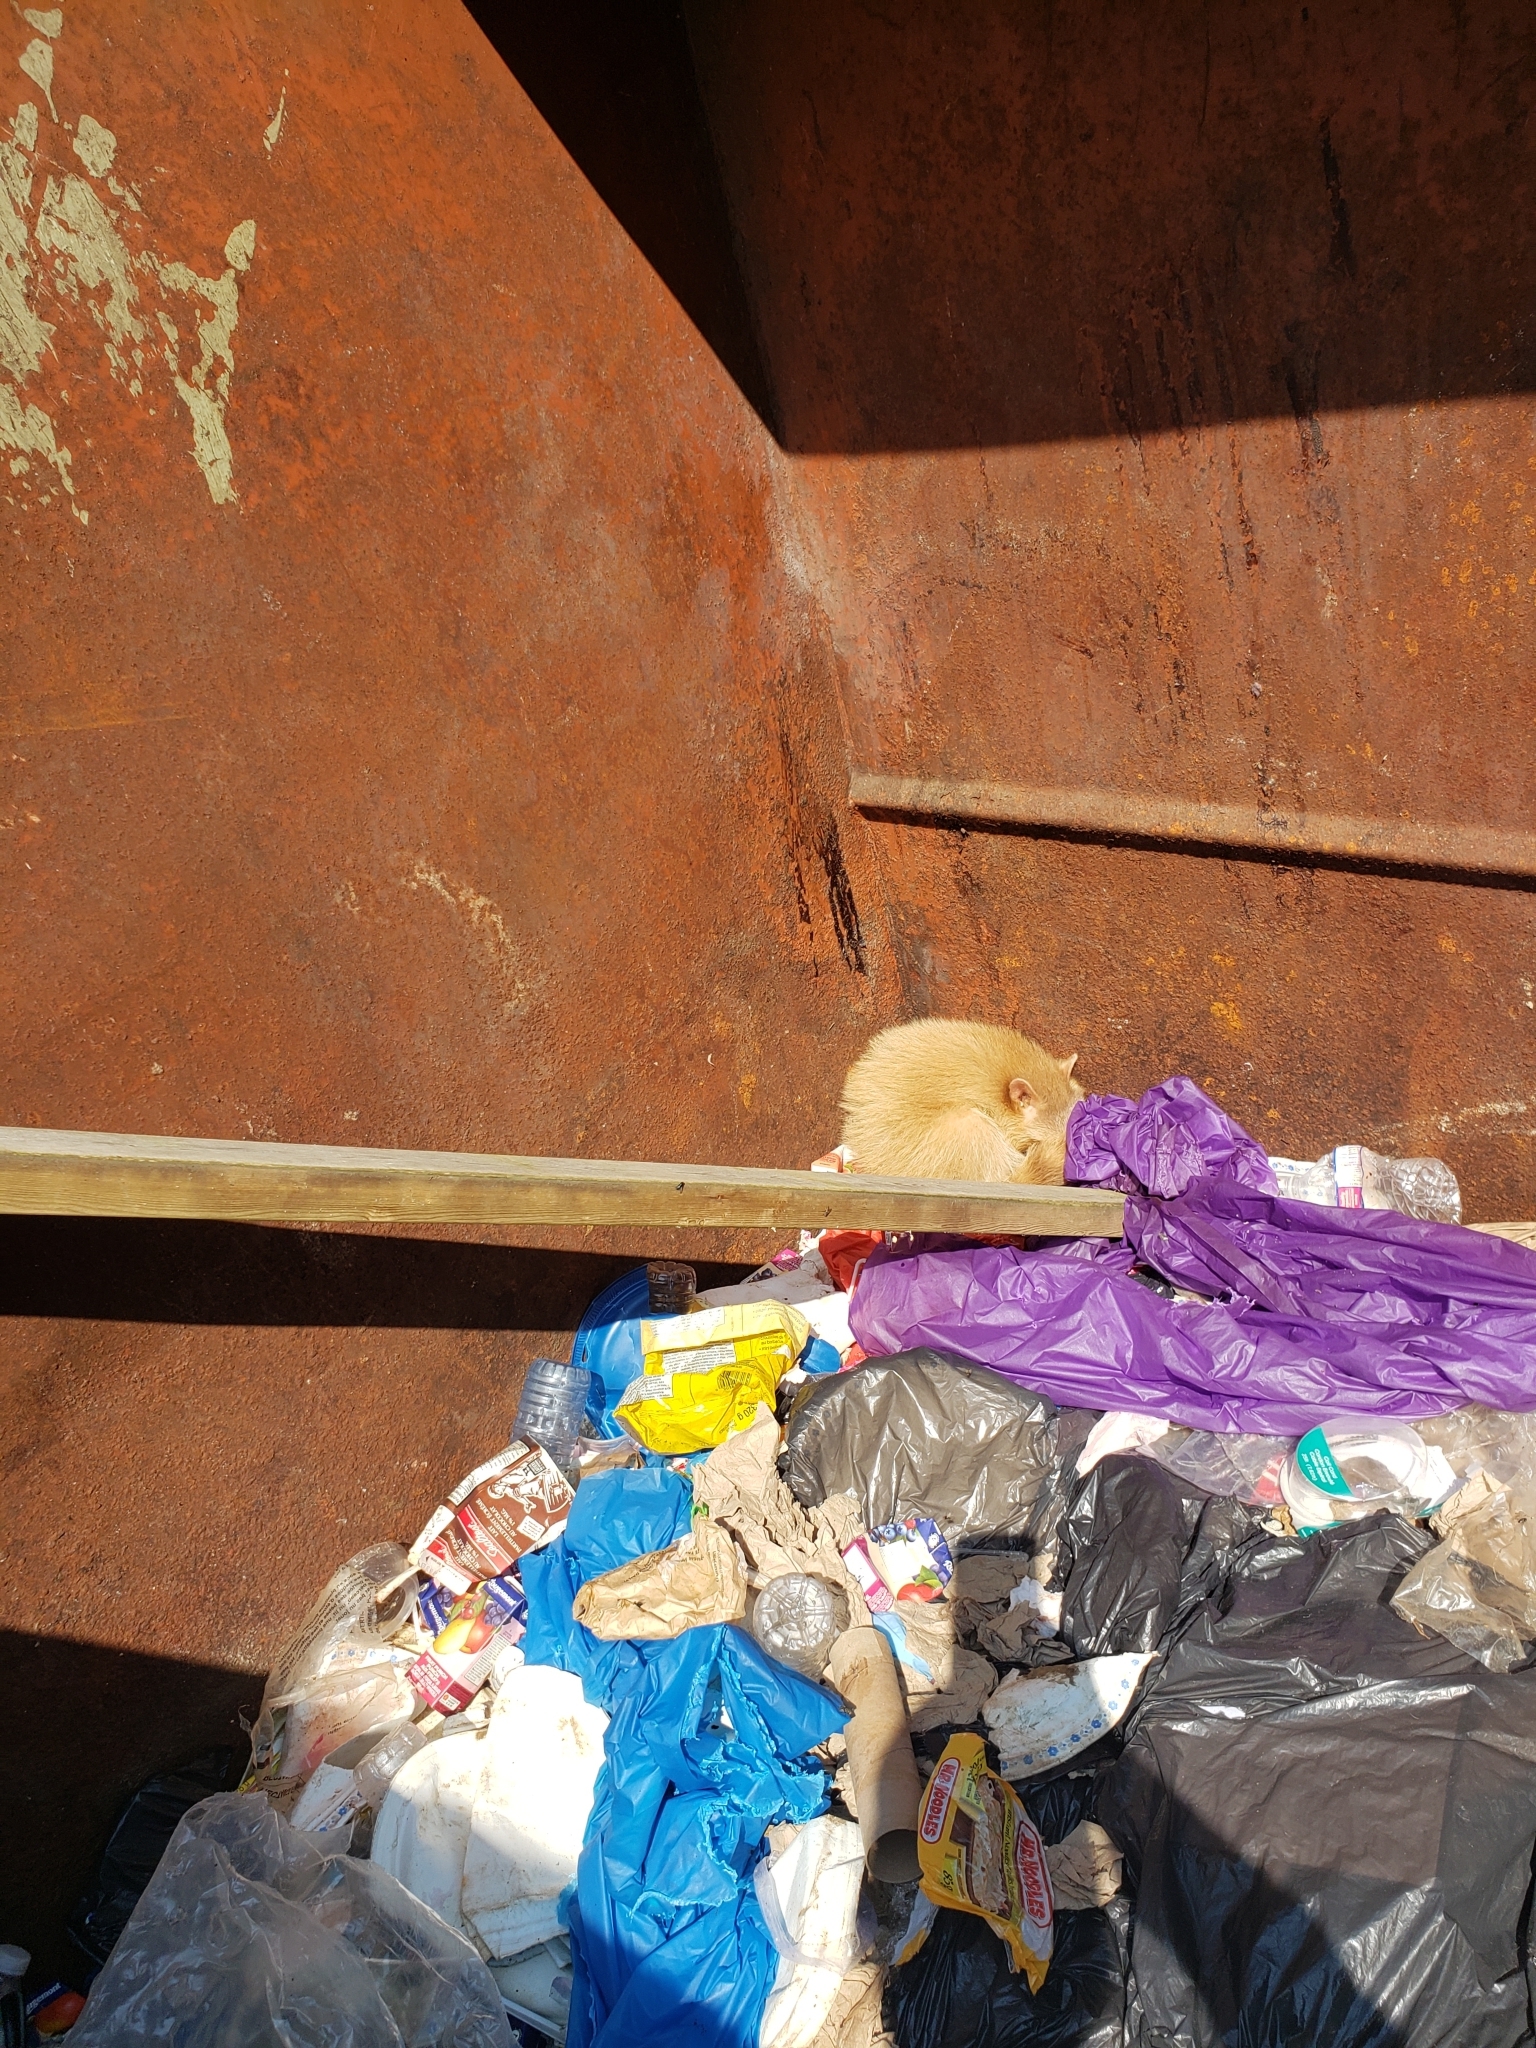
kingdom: Animalia
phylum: Chordata
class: Mammalia
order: Carnivora
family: Procyonidae
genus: Procyon
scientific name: Procyon lotor
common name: Raccoon
